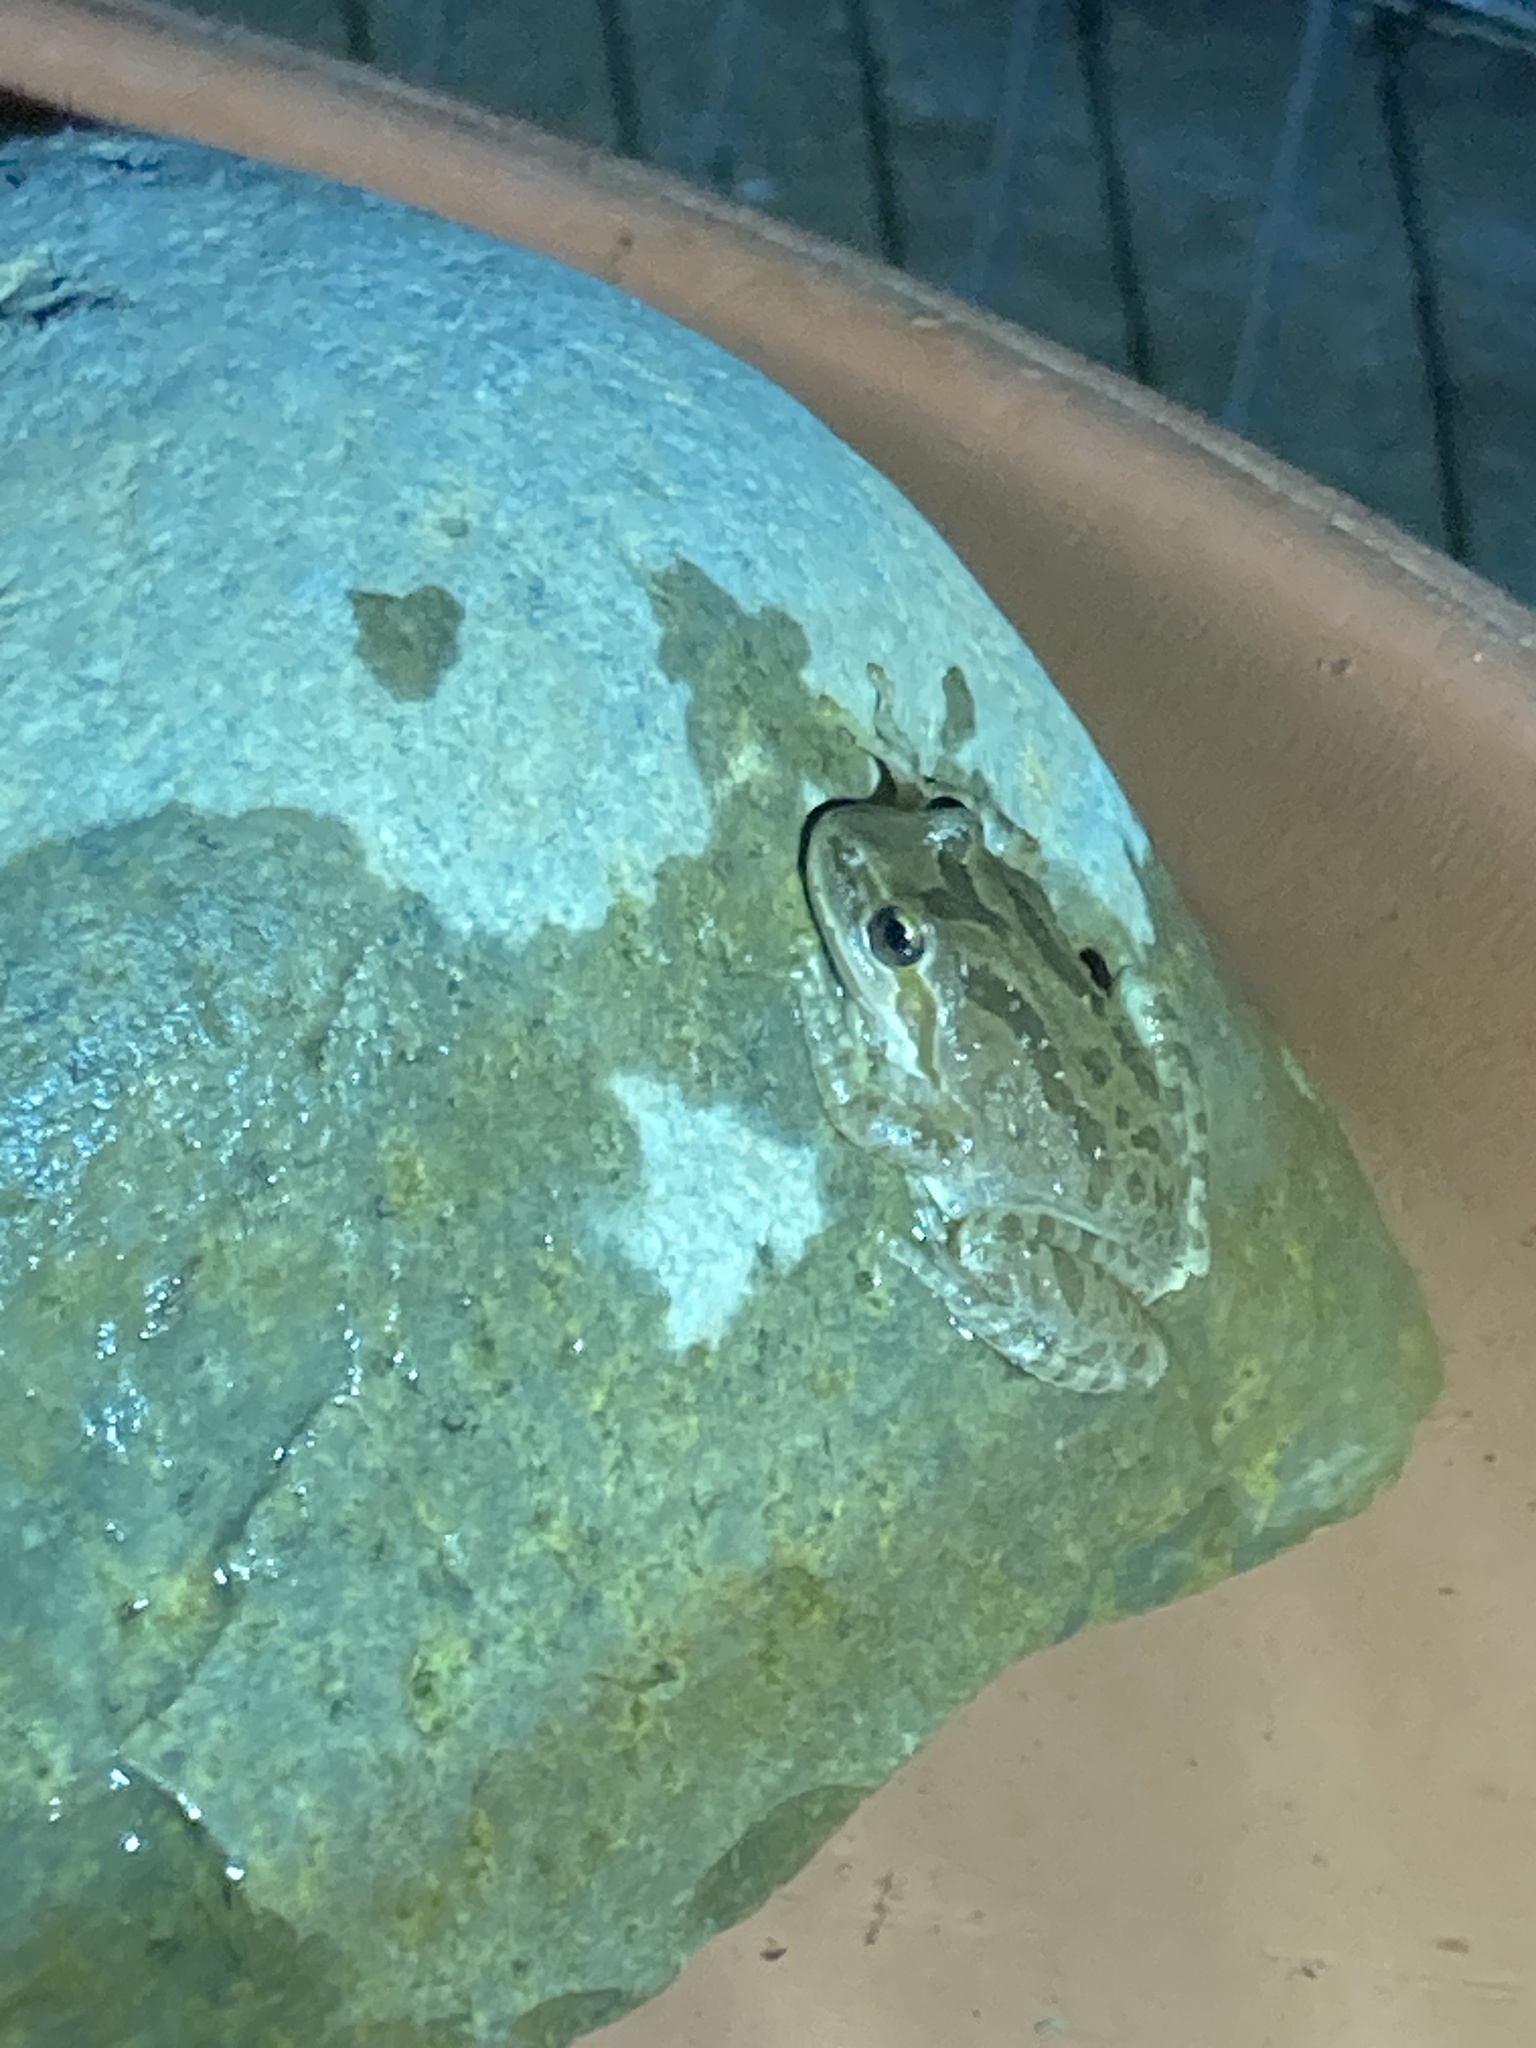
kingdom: Animalia
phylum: Chordata
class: Amphibia
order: Anura
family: Hylidae
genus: Pseudacris
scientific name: Pseudacris regilla
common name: Pacific chorus frog
